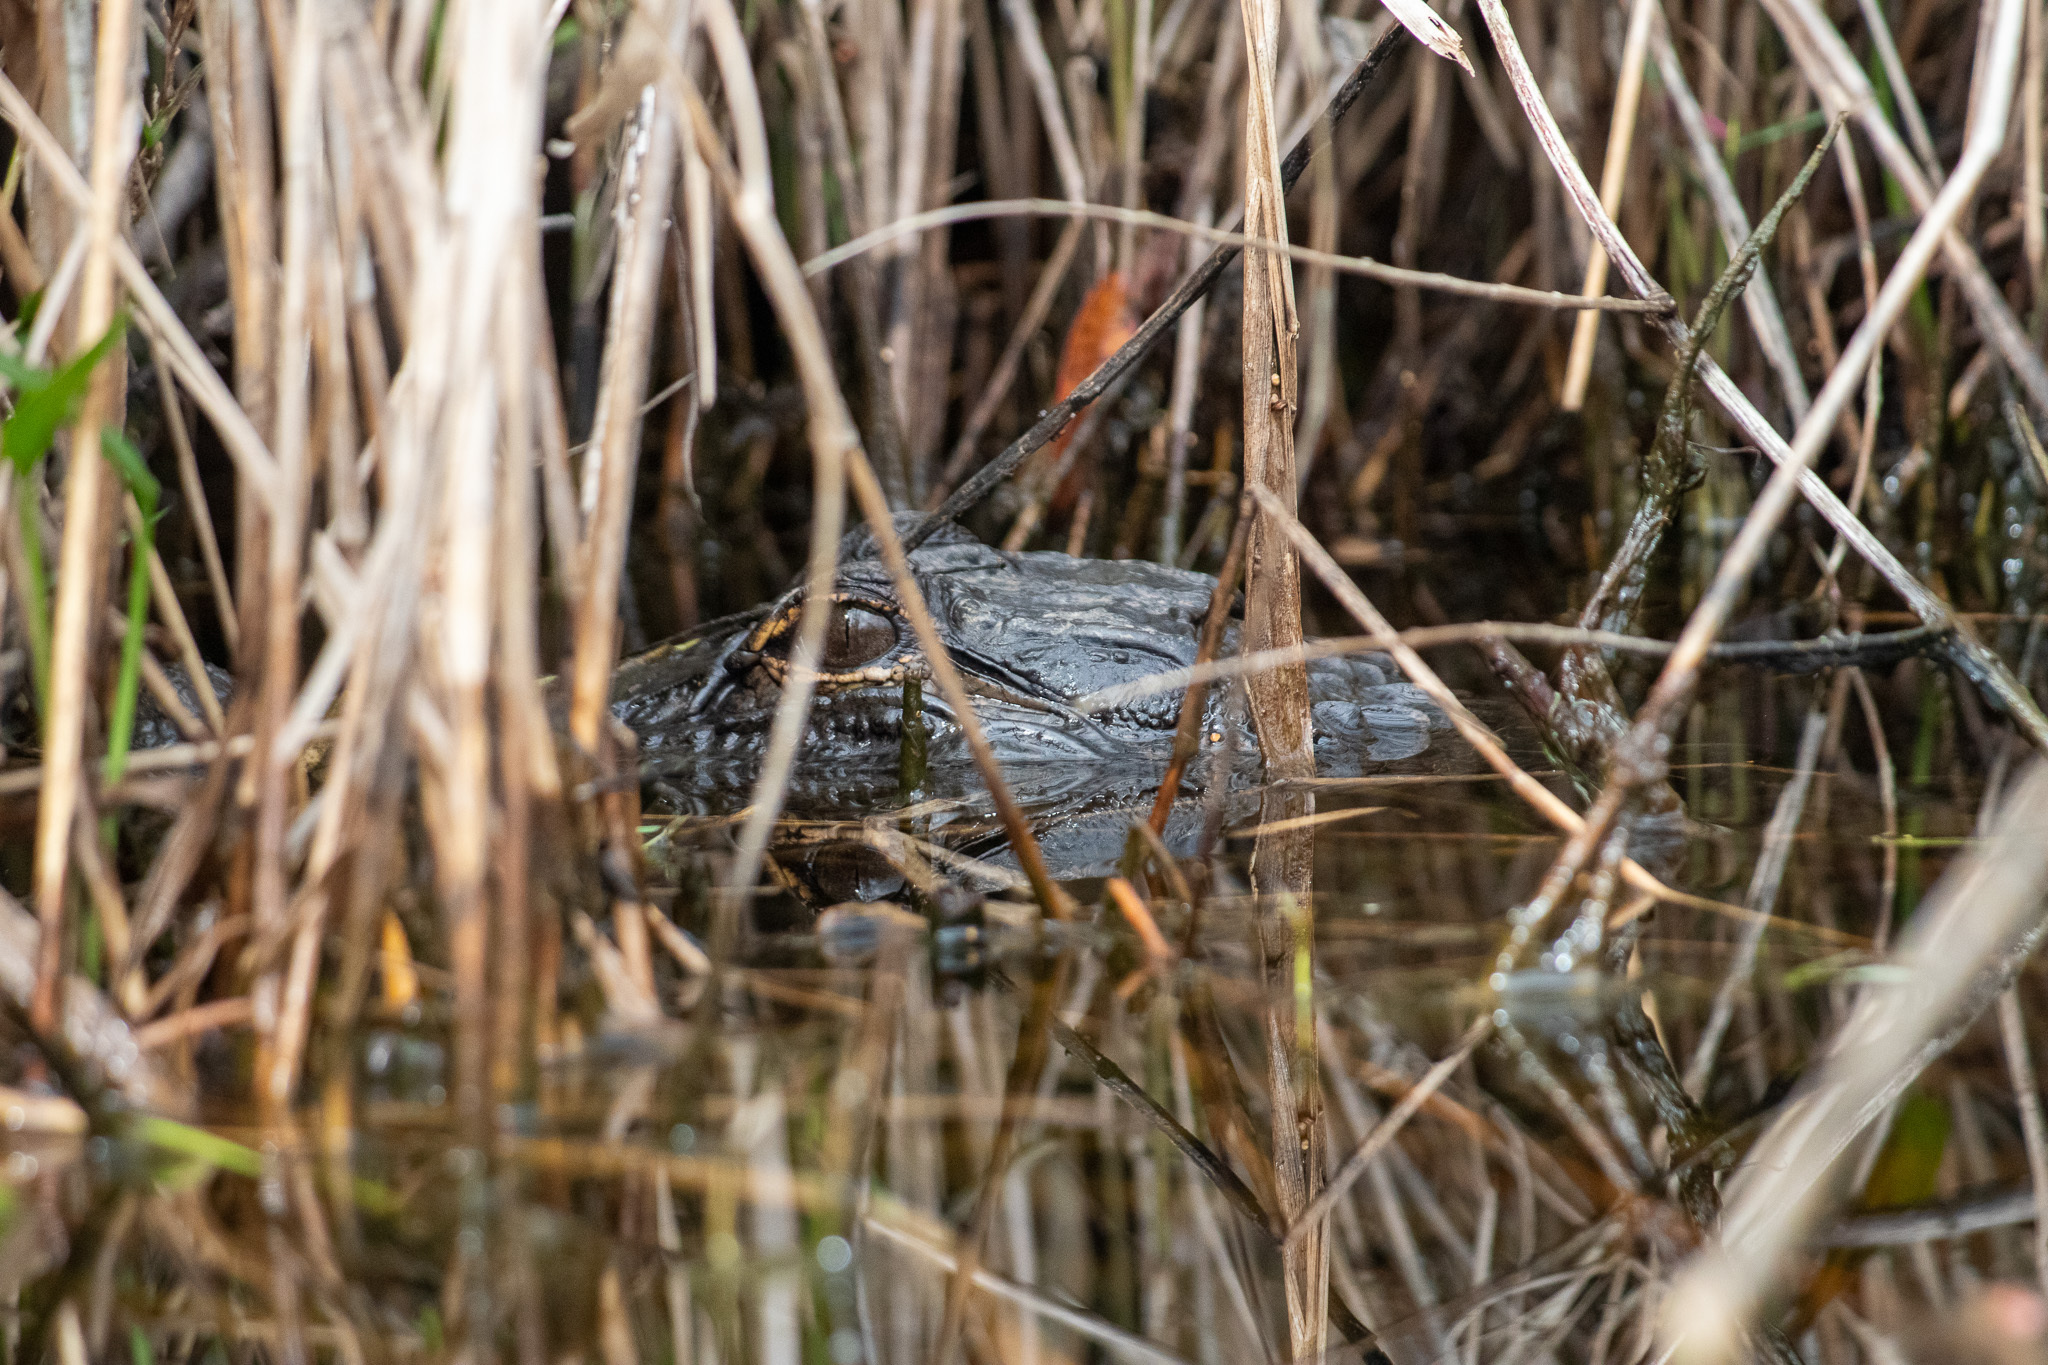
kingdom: Animalia
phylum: Chordata
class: Crocodylia
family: Alligatoridae
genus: Alligator
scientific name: Alligator mississippiensis
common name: American alligator
